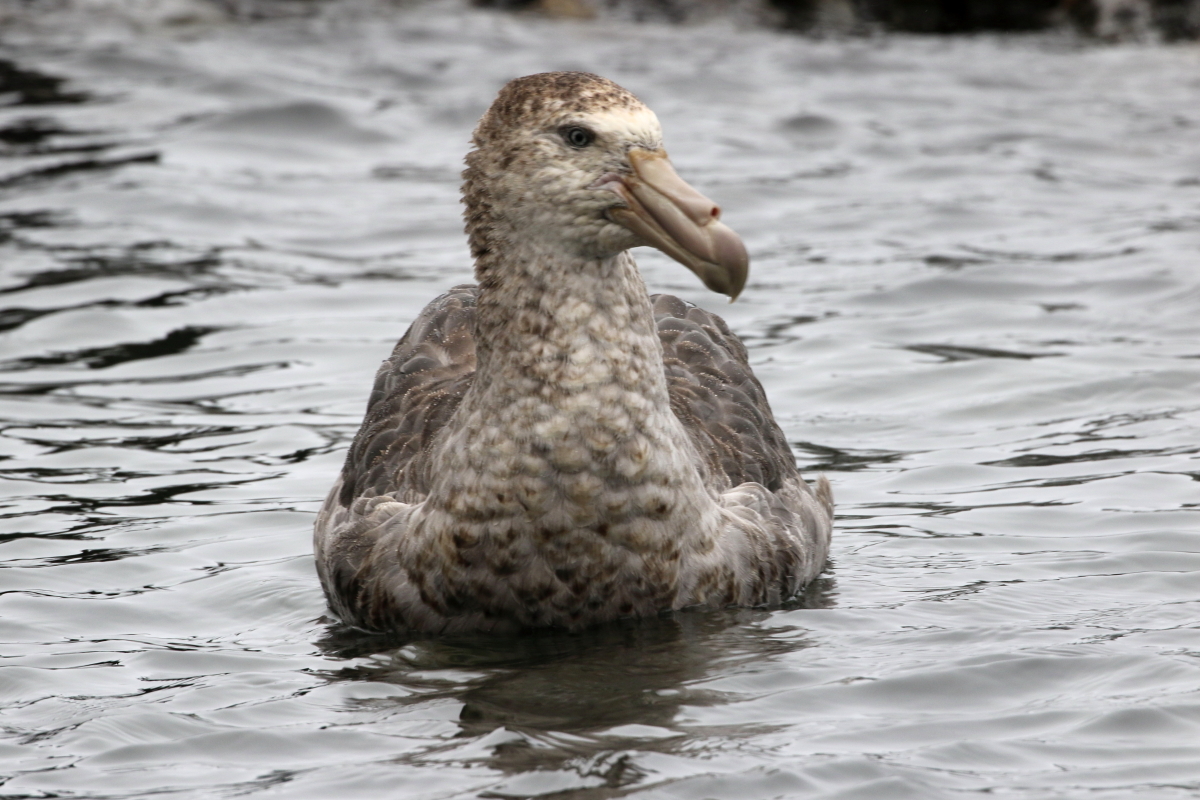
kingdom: Animalia
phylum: Chordata
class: Aves
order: Procellariiformes
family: Procellariidae
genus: Macronectes
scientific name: Macronectes halli
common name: Northern giant petrel
